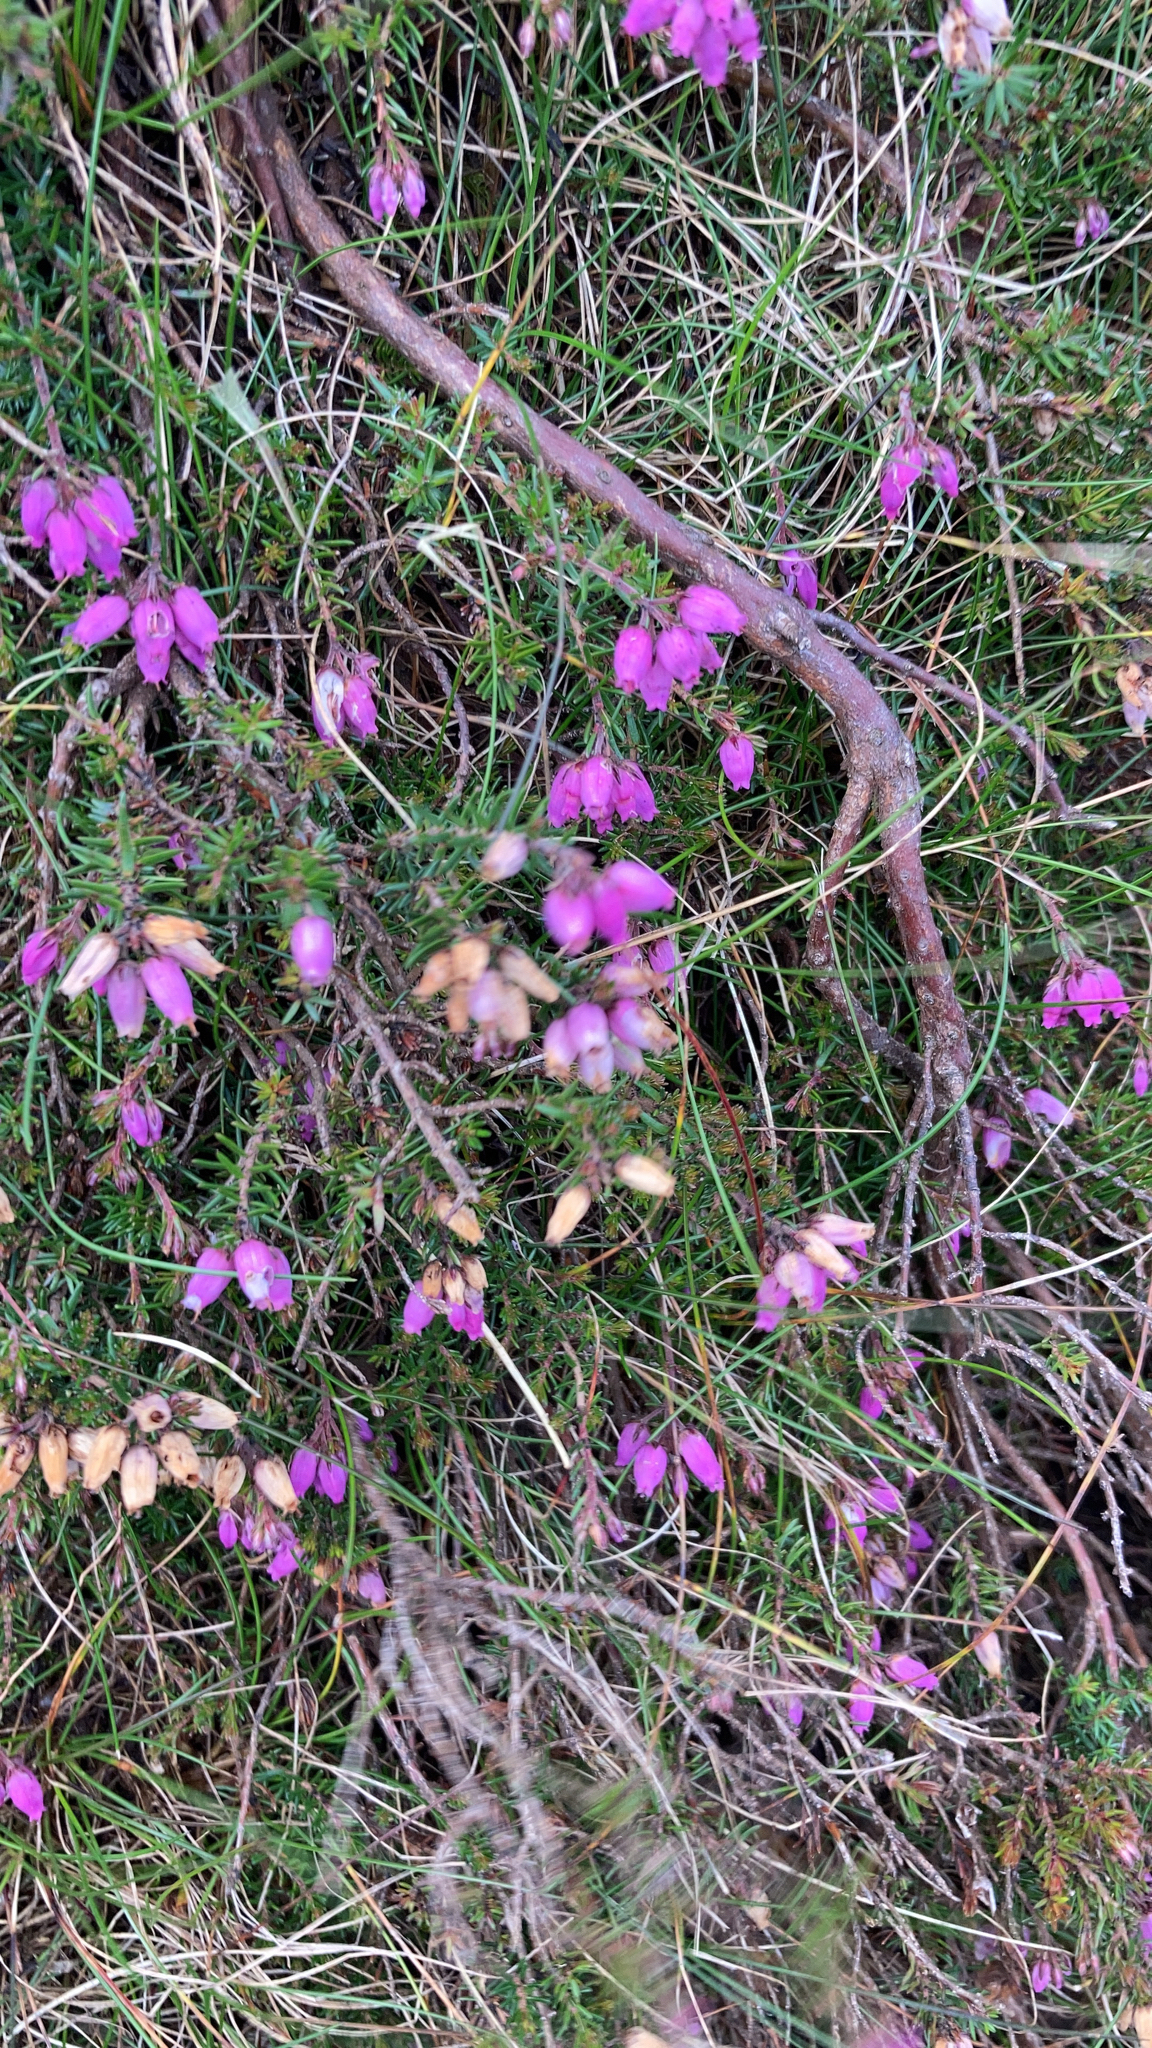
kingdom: Plantae
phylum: Tracheophyta
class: Magnoliopsida
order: Ericales
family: Ericaceae
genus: Erica
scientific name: Erica cinerea
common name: Bell heather
